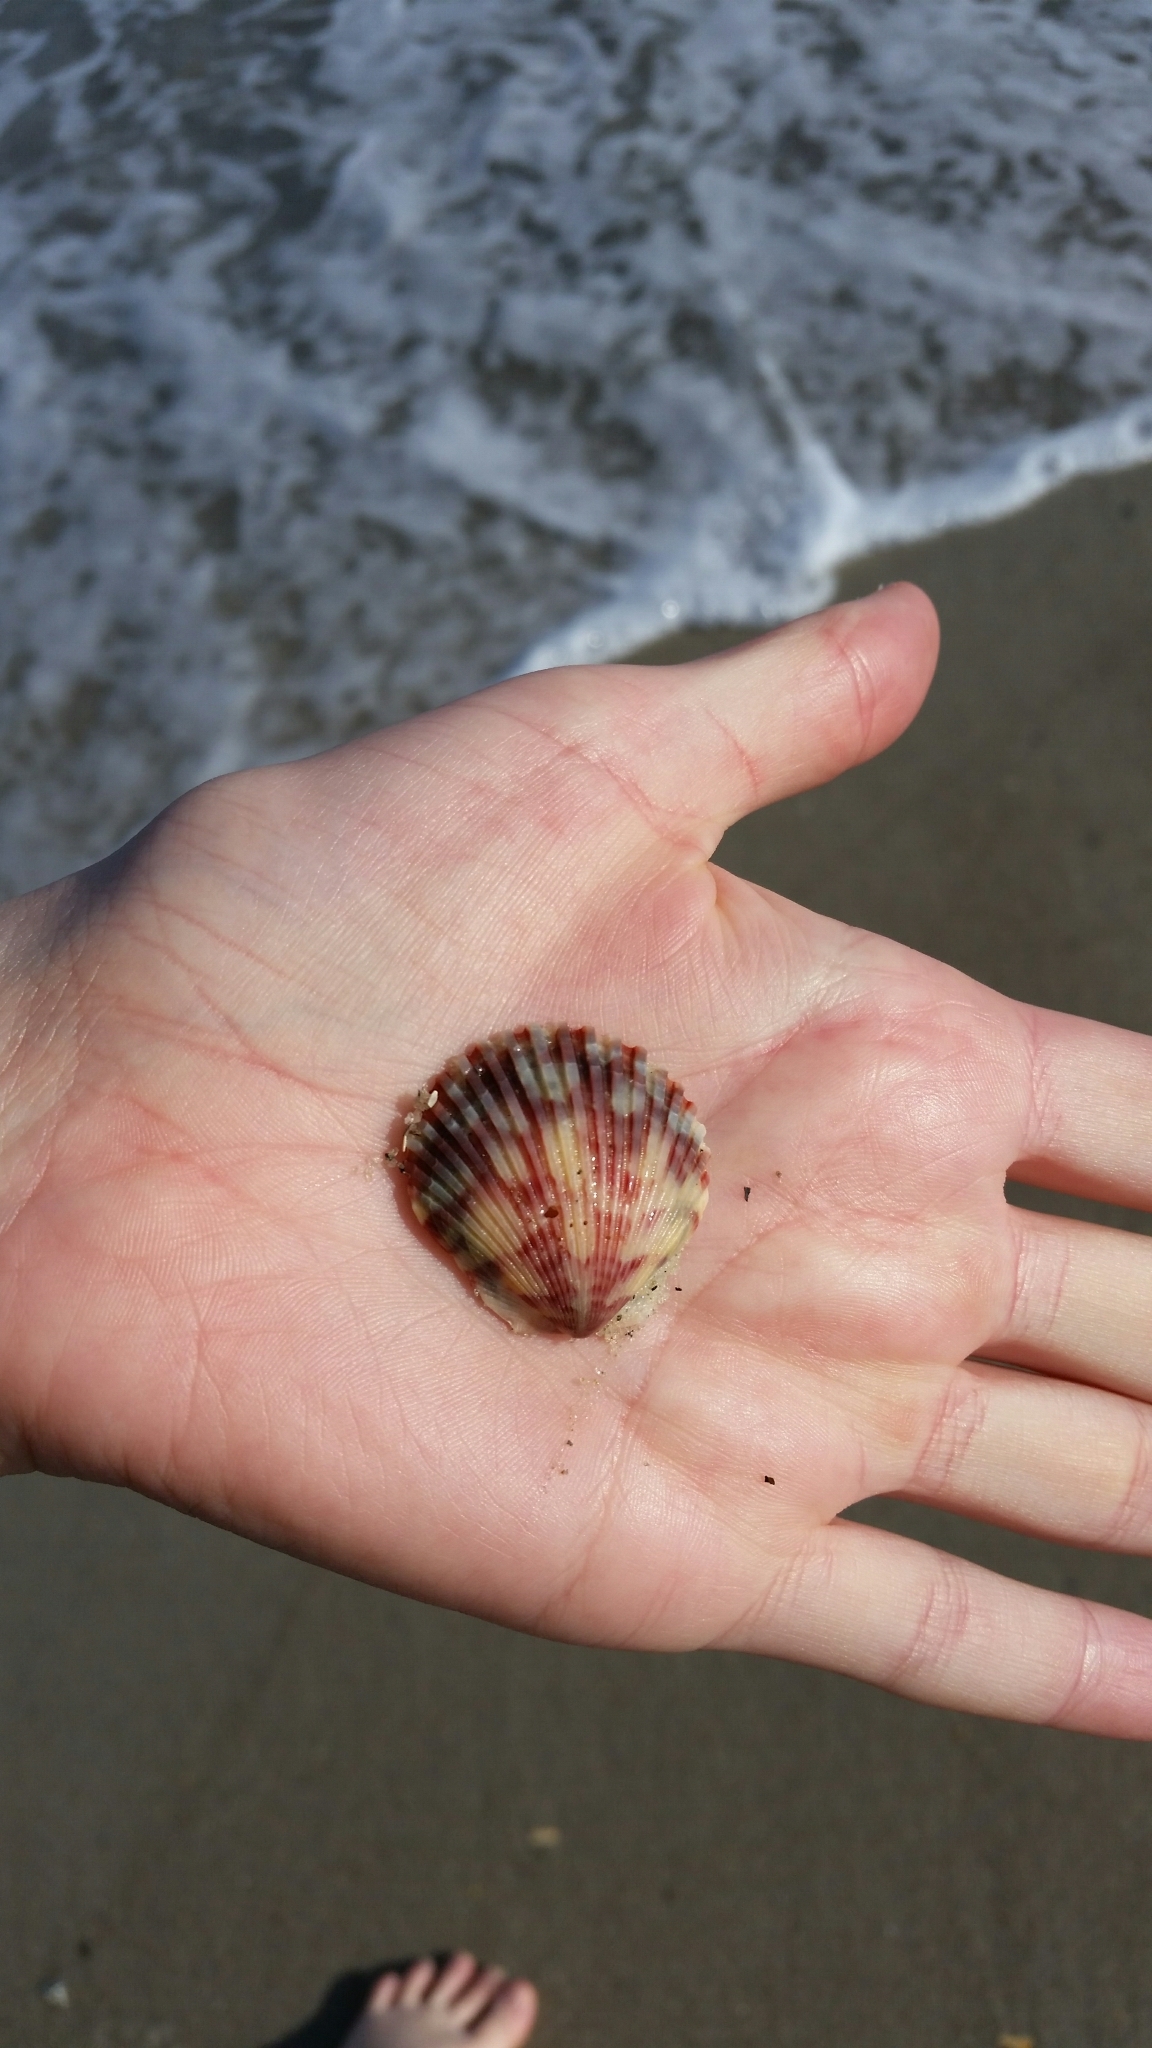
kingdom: Animalia
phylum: Mollusca
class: Bivalvia
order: Pectinida
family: Pectinidae
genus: Argopecten
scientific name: Argopecten gibbus
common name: Atlantic calico scallop
